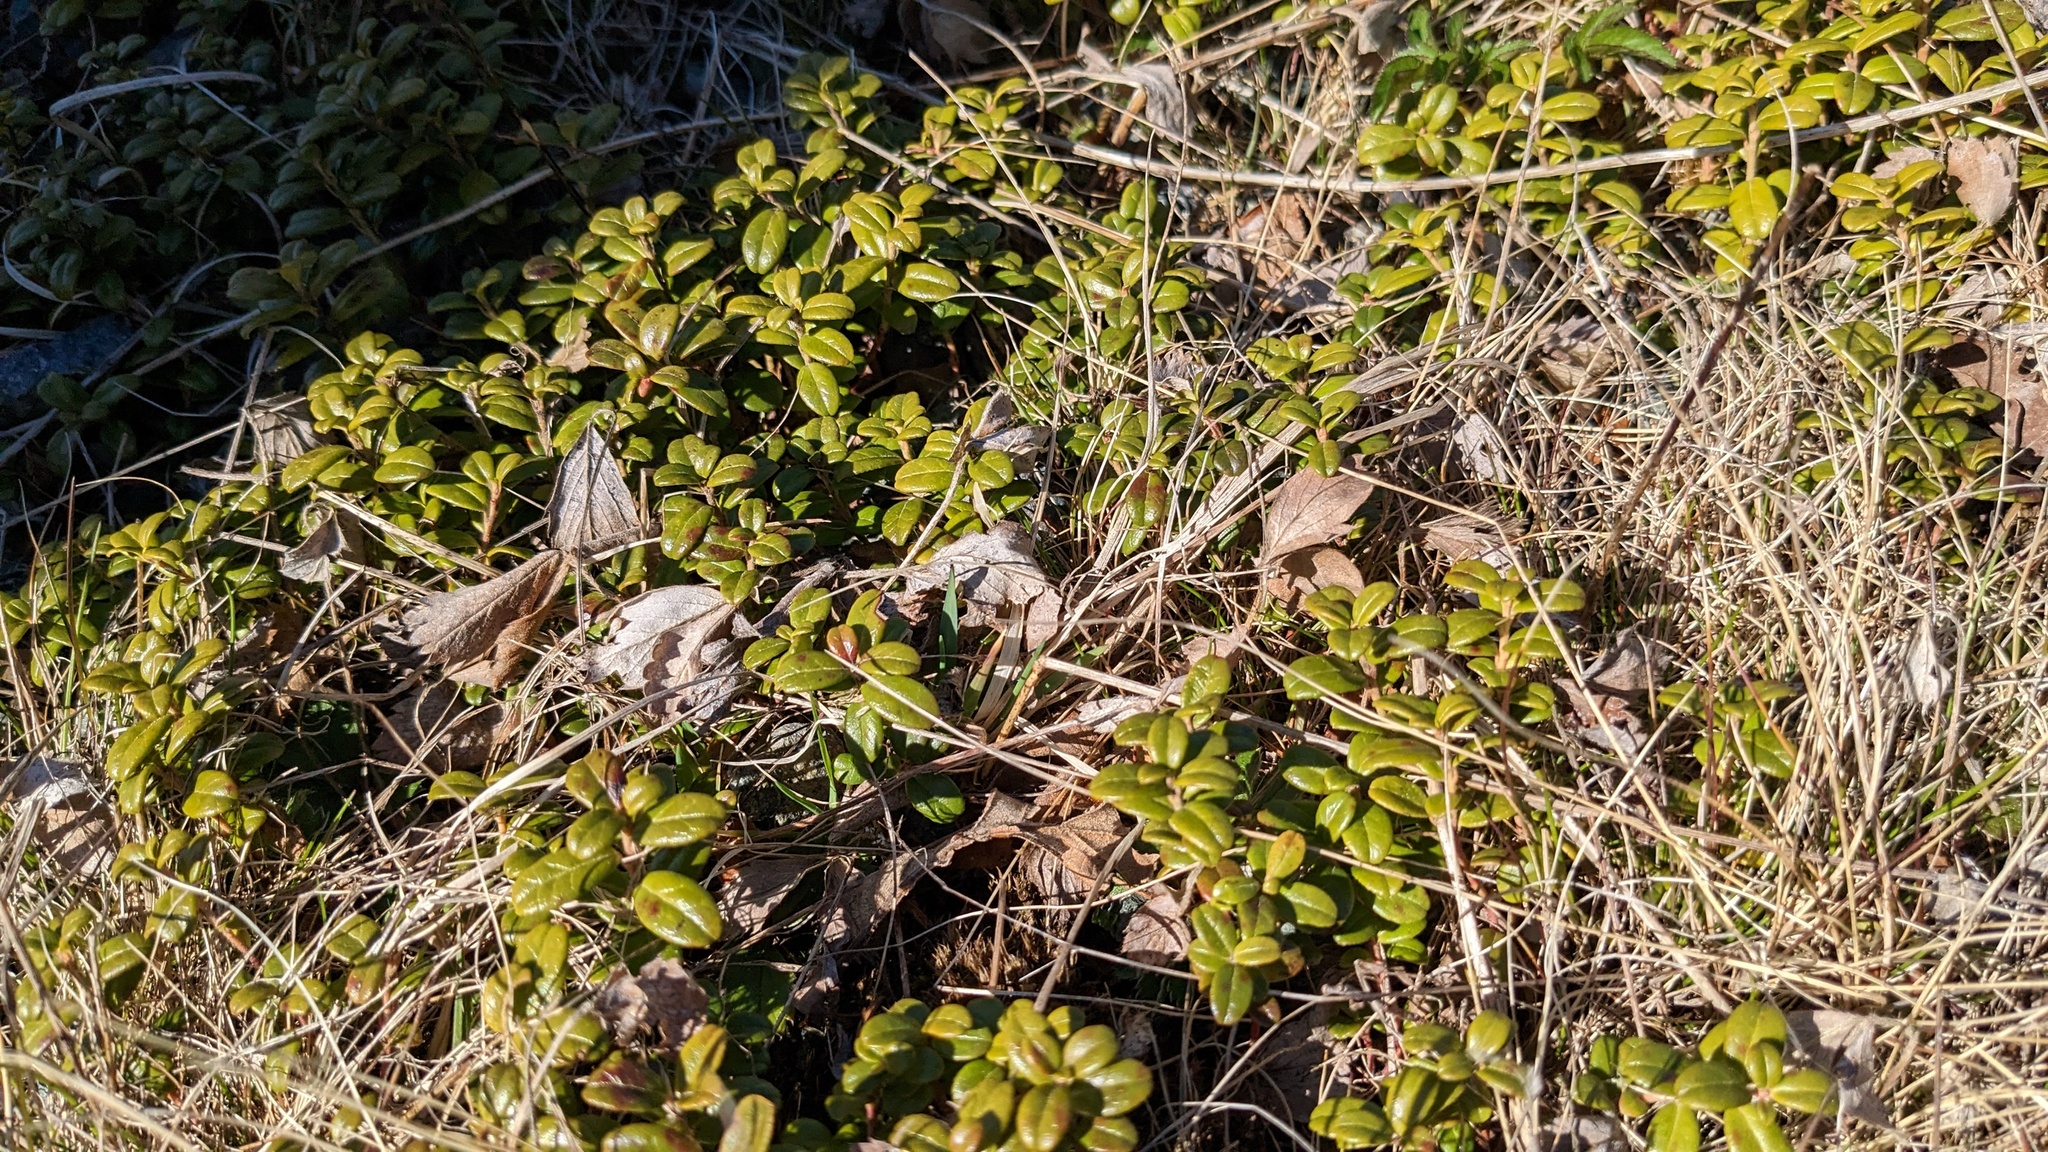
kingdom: Plantae
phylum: Tracheophyta
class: Magnoliopsida
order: Ericales
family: Ericaceae
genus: Vaccinium
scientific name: Vaccinium vitis-idaea
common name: Cowberry
